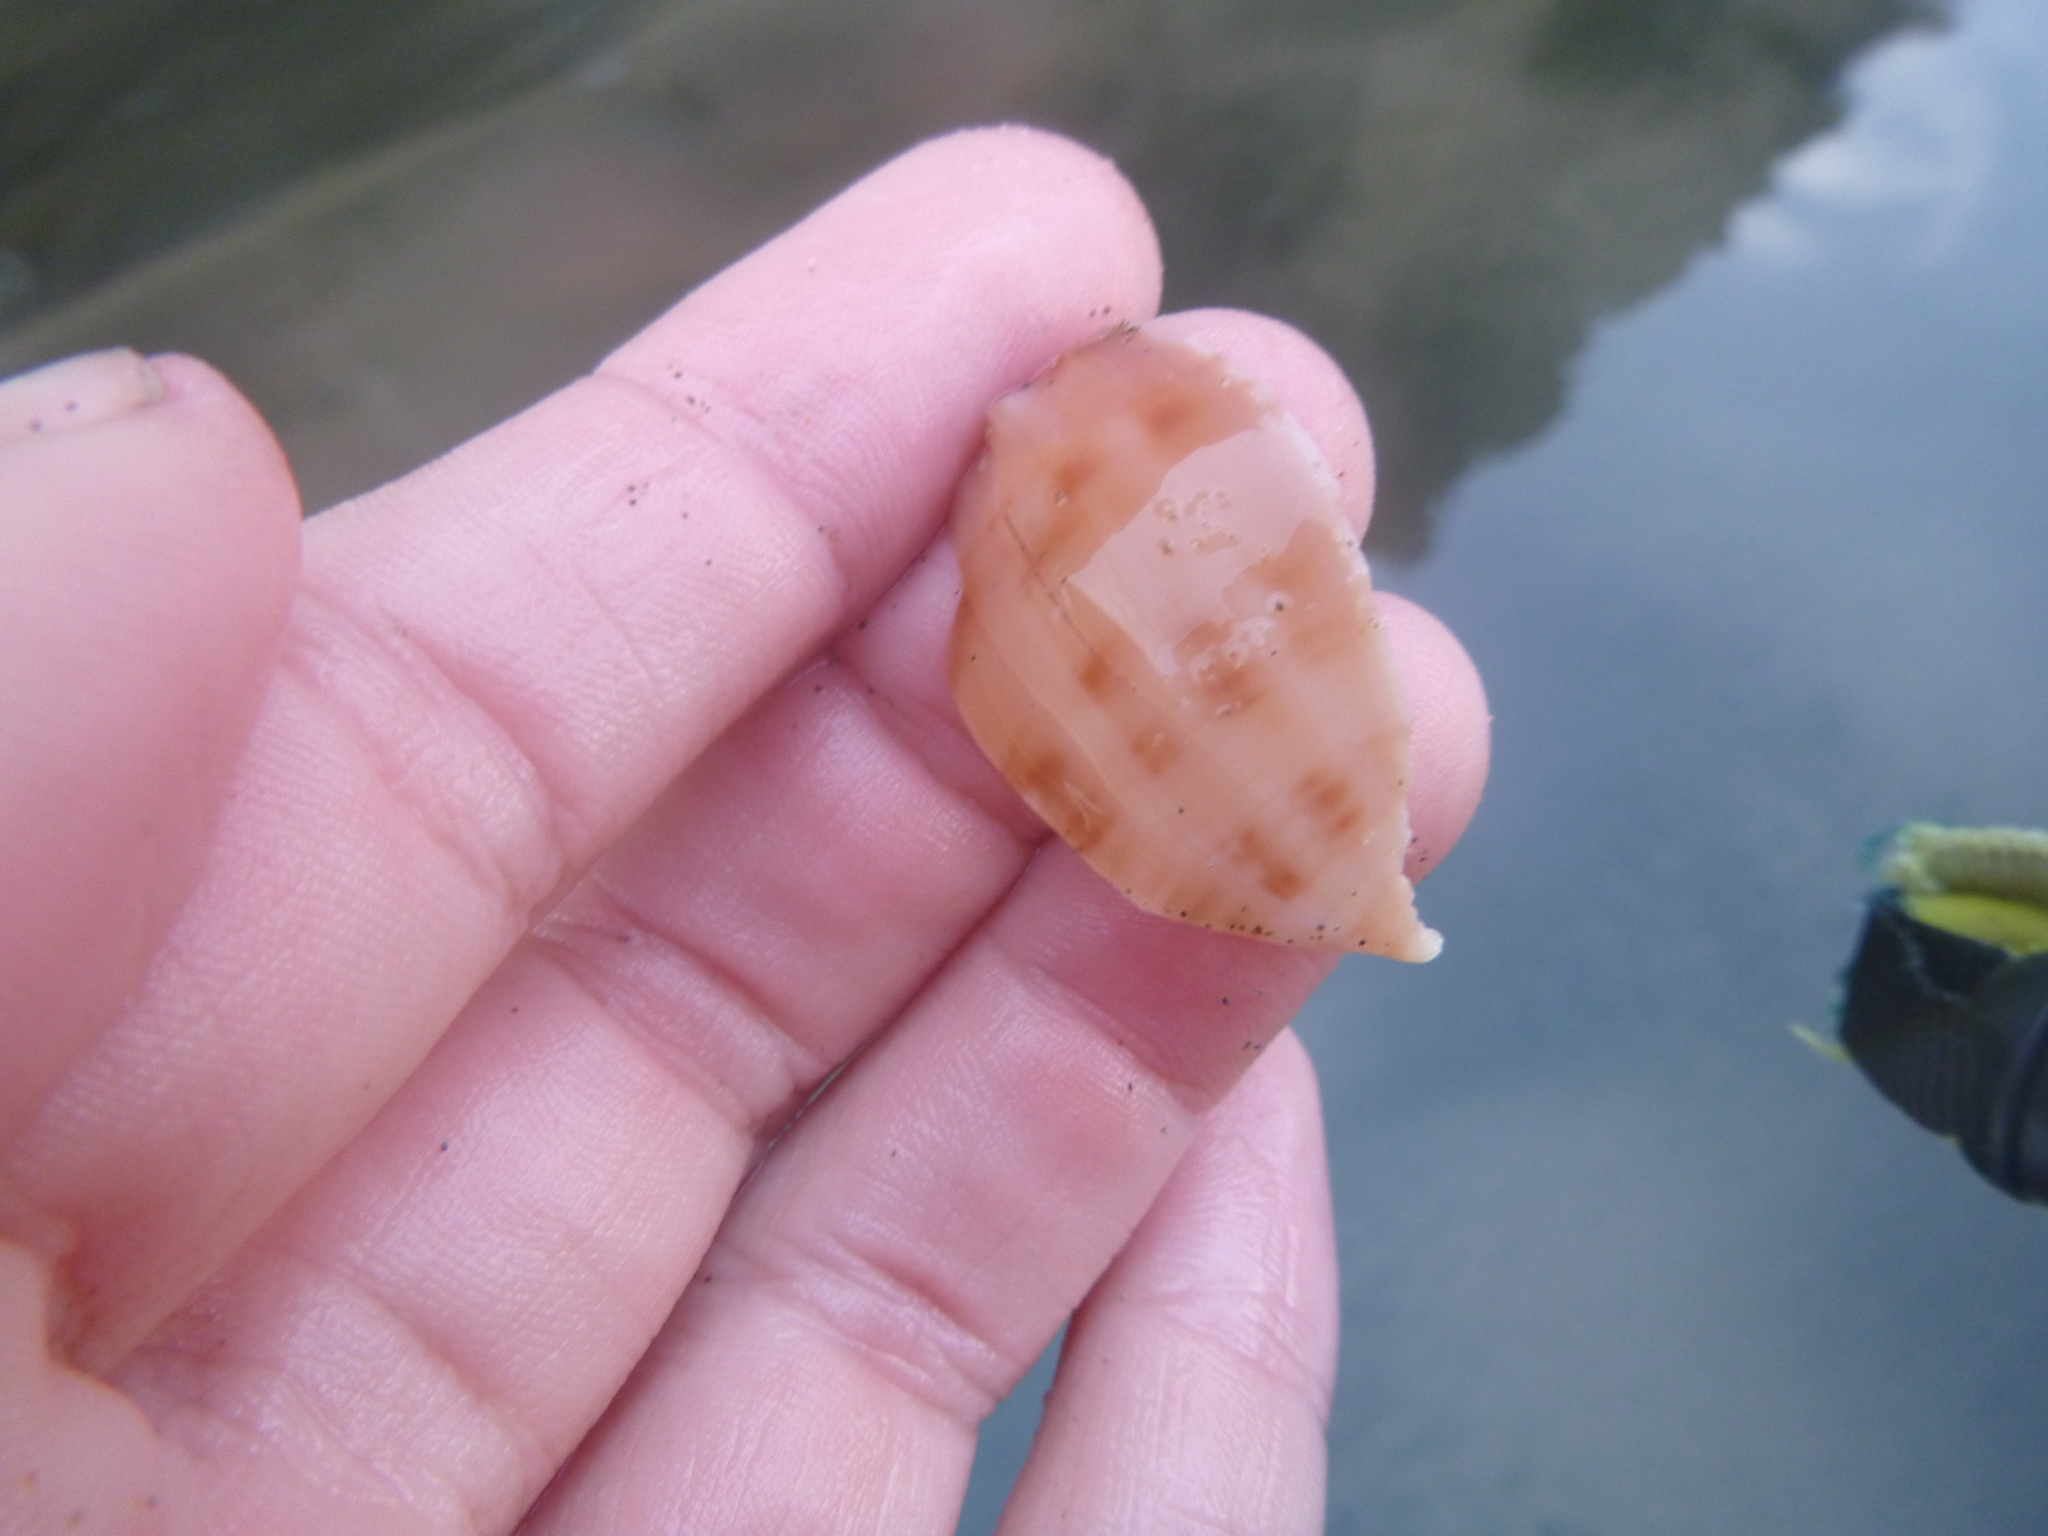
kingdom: Animalia
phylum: Mollusca
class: Gastropoda
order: Littorinimorpha
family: Cassidae
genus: Semicassis
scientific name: Semicassis pyrum
